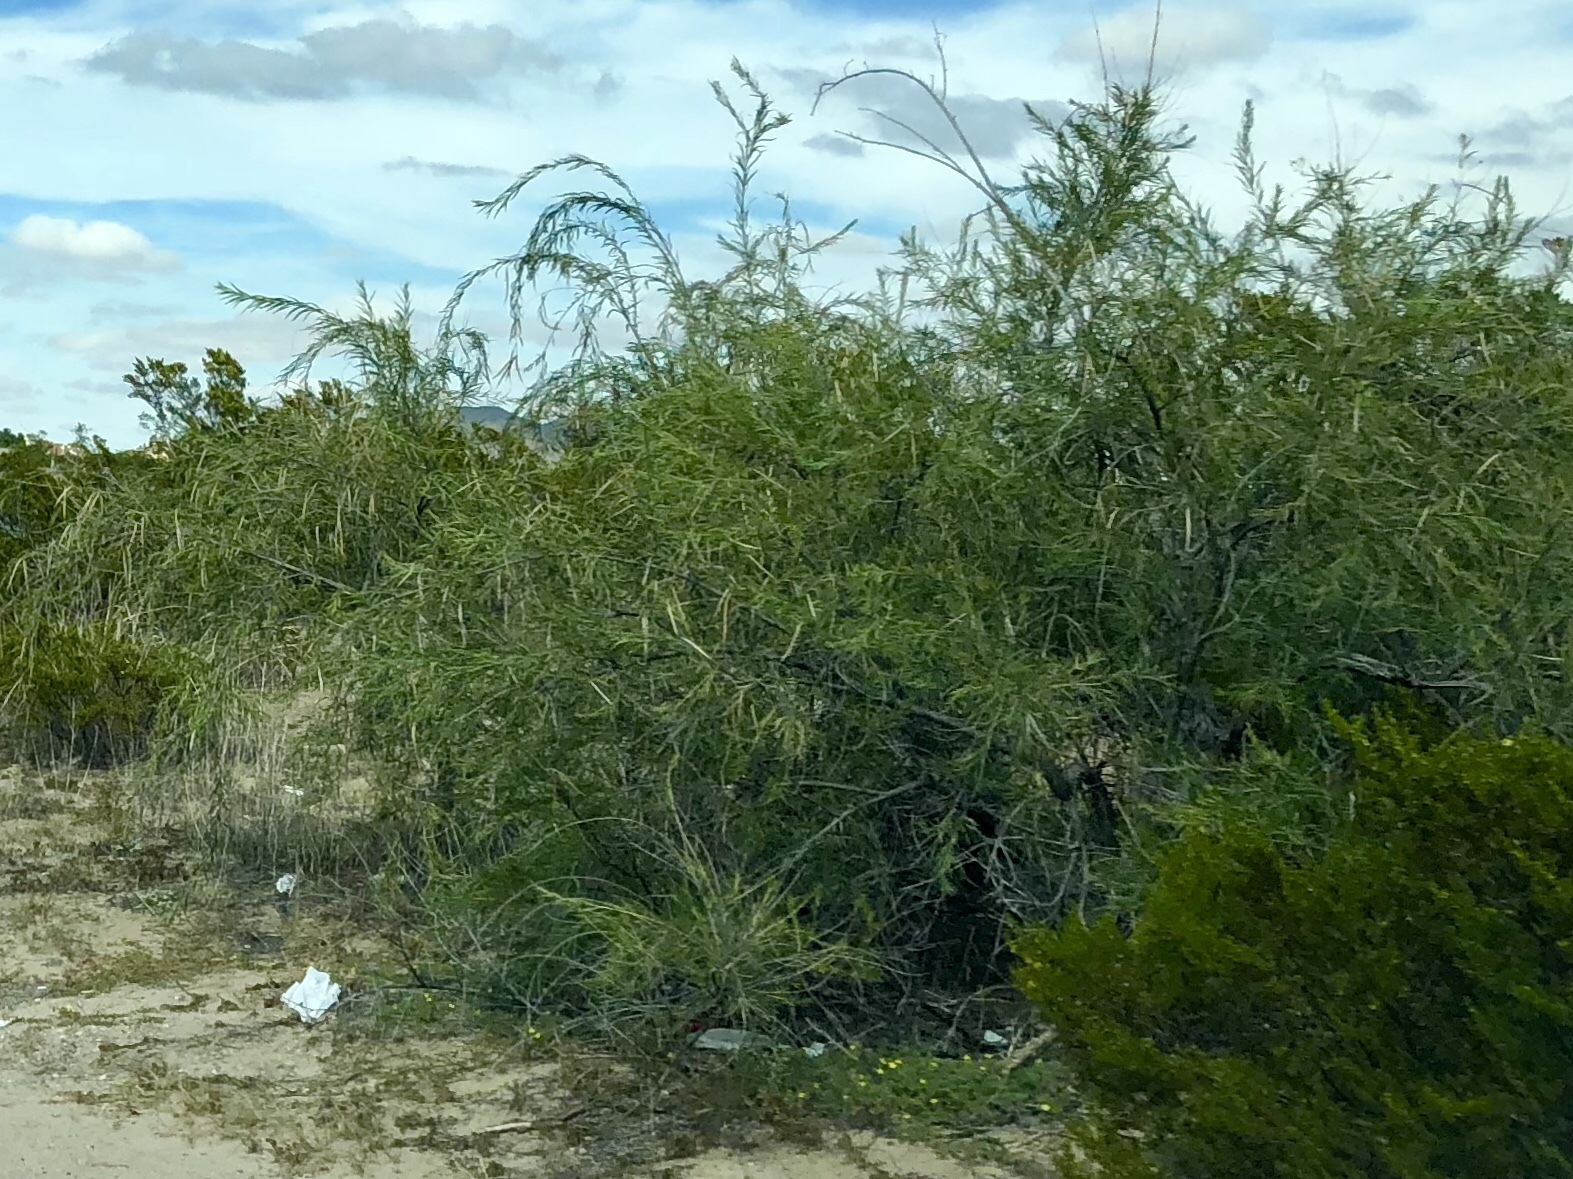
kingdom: Plantae
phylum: Tracheophyta
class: Magnoliopsida
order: Lamiales
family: Bignoniaceae
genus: Chilopsis
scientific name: Chilopsis linearis
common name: Desert-willow
